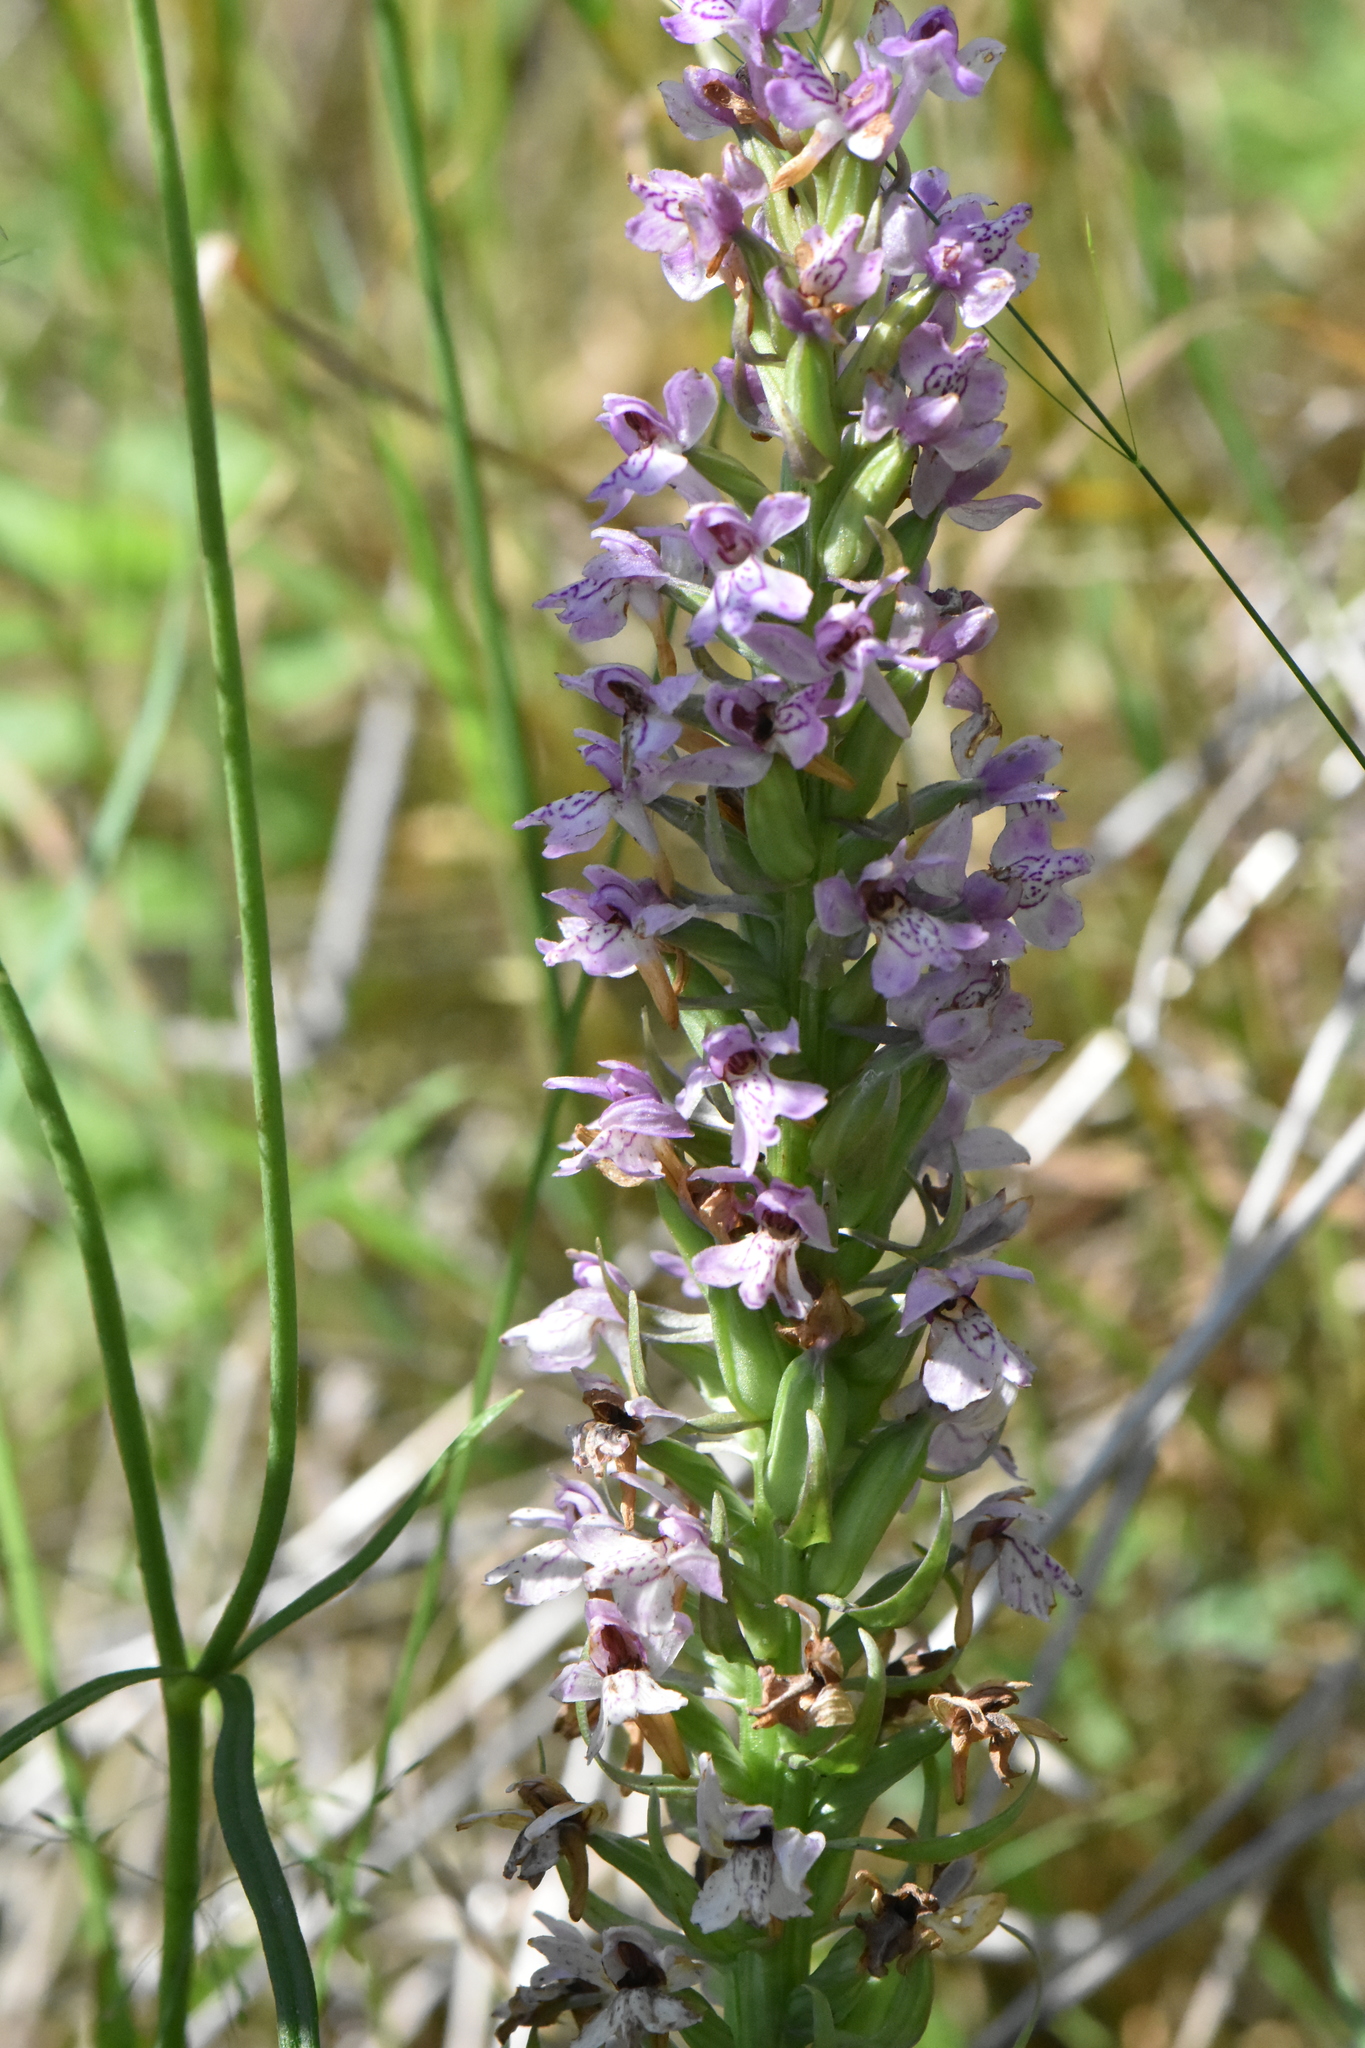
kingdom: Plantae
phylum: Tracheophyta
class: Liliopsida
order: Asparagales
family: Orchidaceae
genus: Dactylorhiza
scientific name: Dactylorhiza majalis
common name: Marsh orchid
